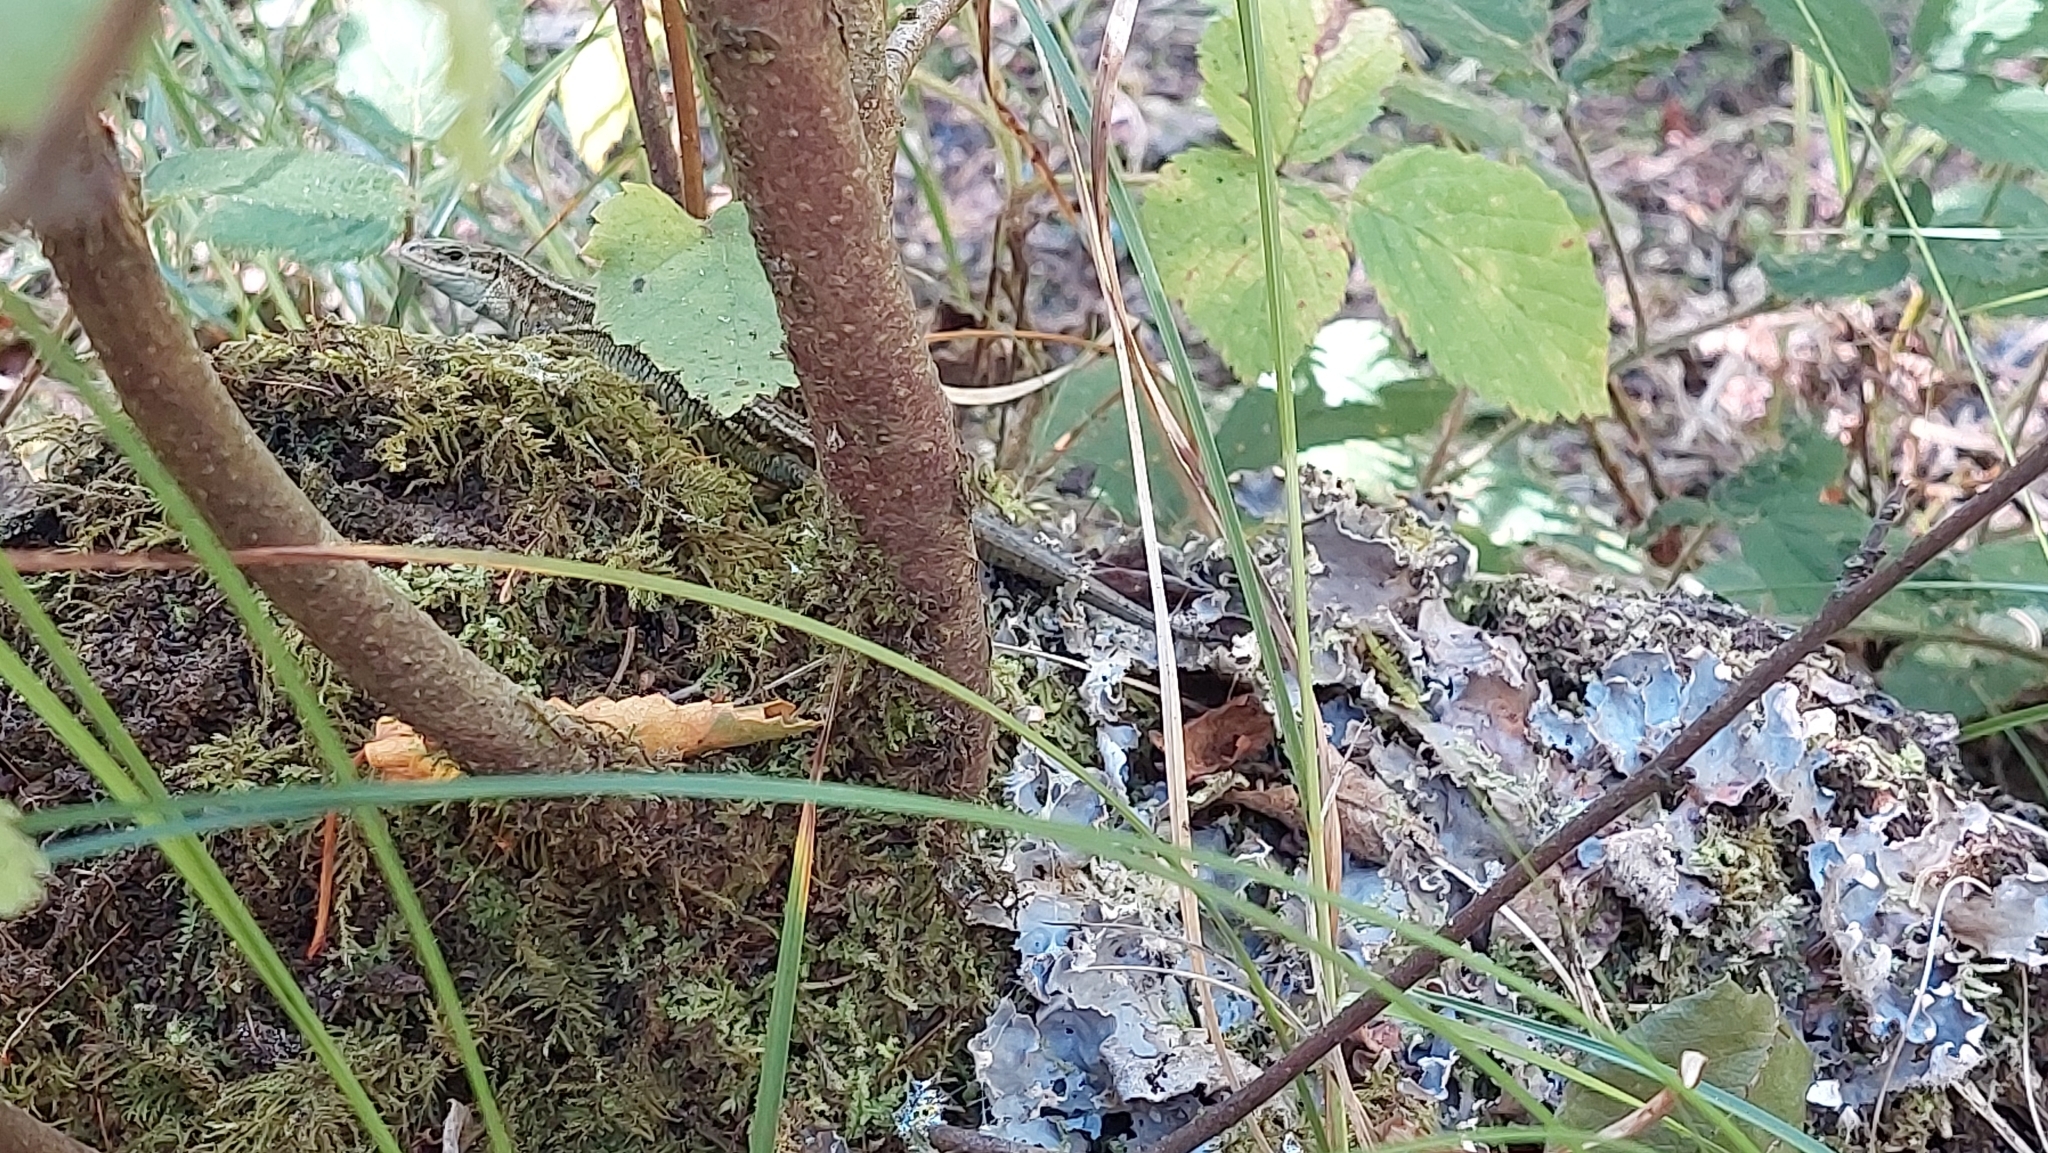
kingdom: Animalia
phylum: Chordata
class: Squamata
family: Lacertidae
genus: Zootoca
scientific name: Zootoca vivipara
